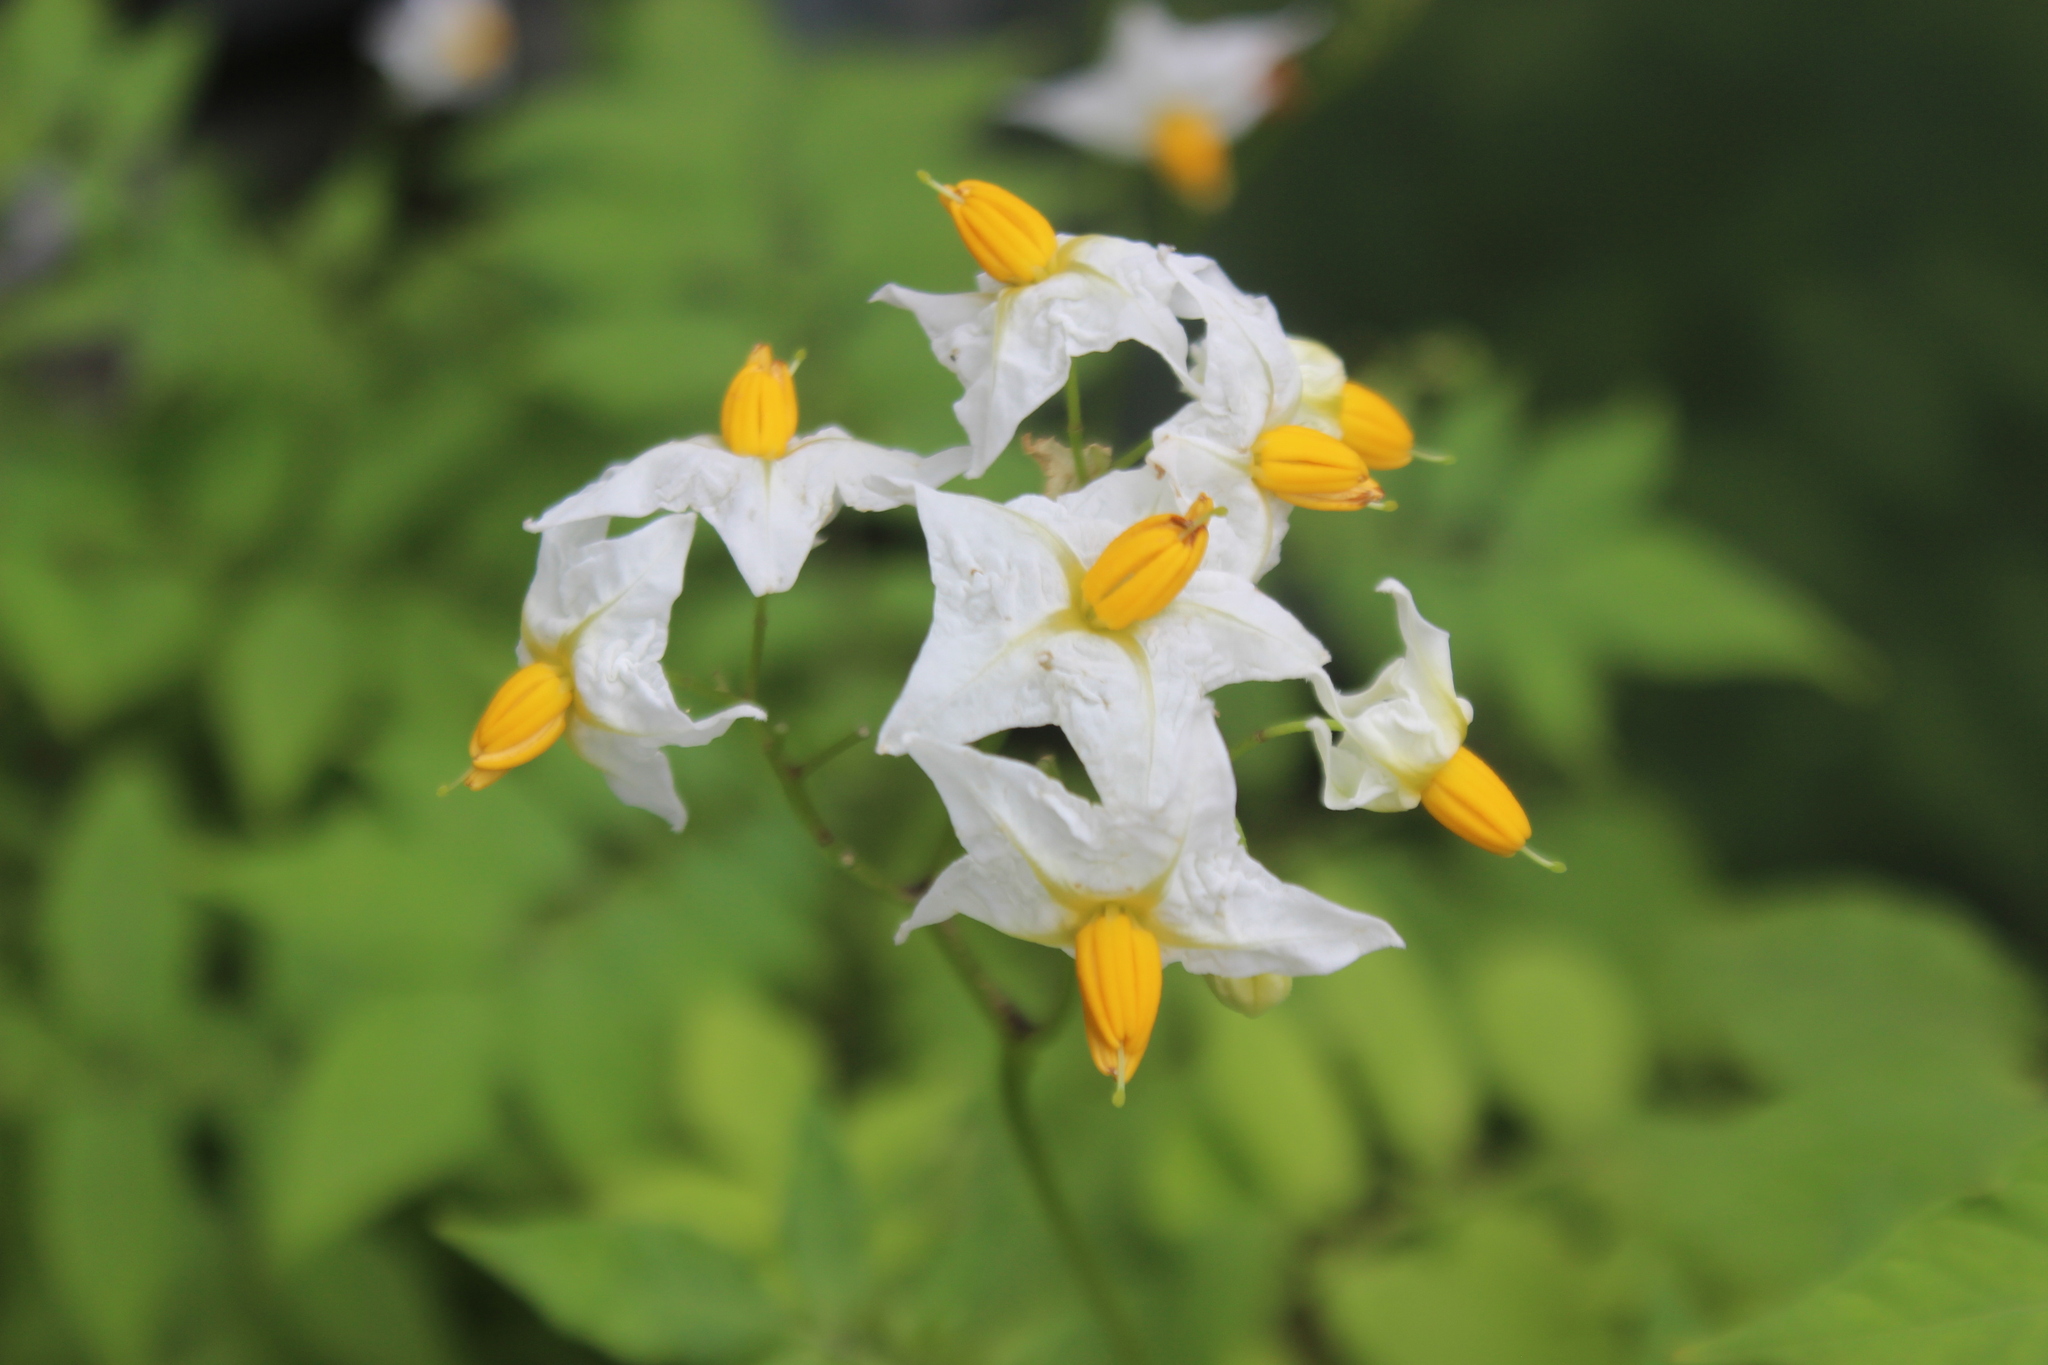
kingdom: Plantae
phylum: Tracheophyta
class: Magnoliopsida
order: Solanales
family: Solanaceae
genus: Solanum
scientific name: Solanum chacoense
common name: Chaco potato
